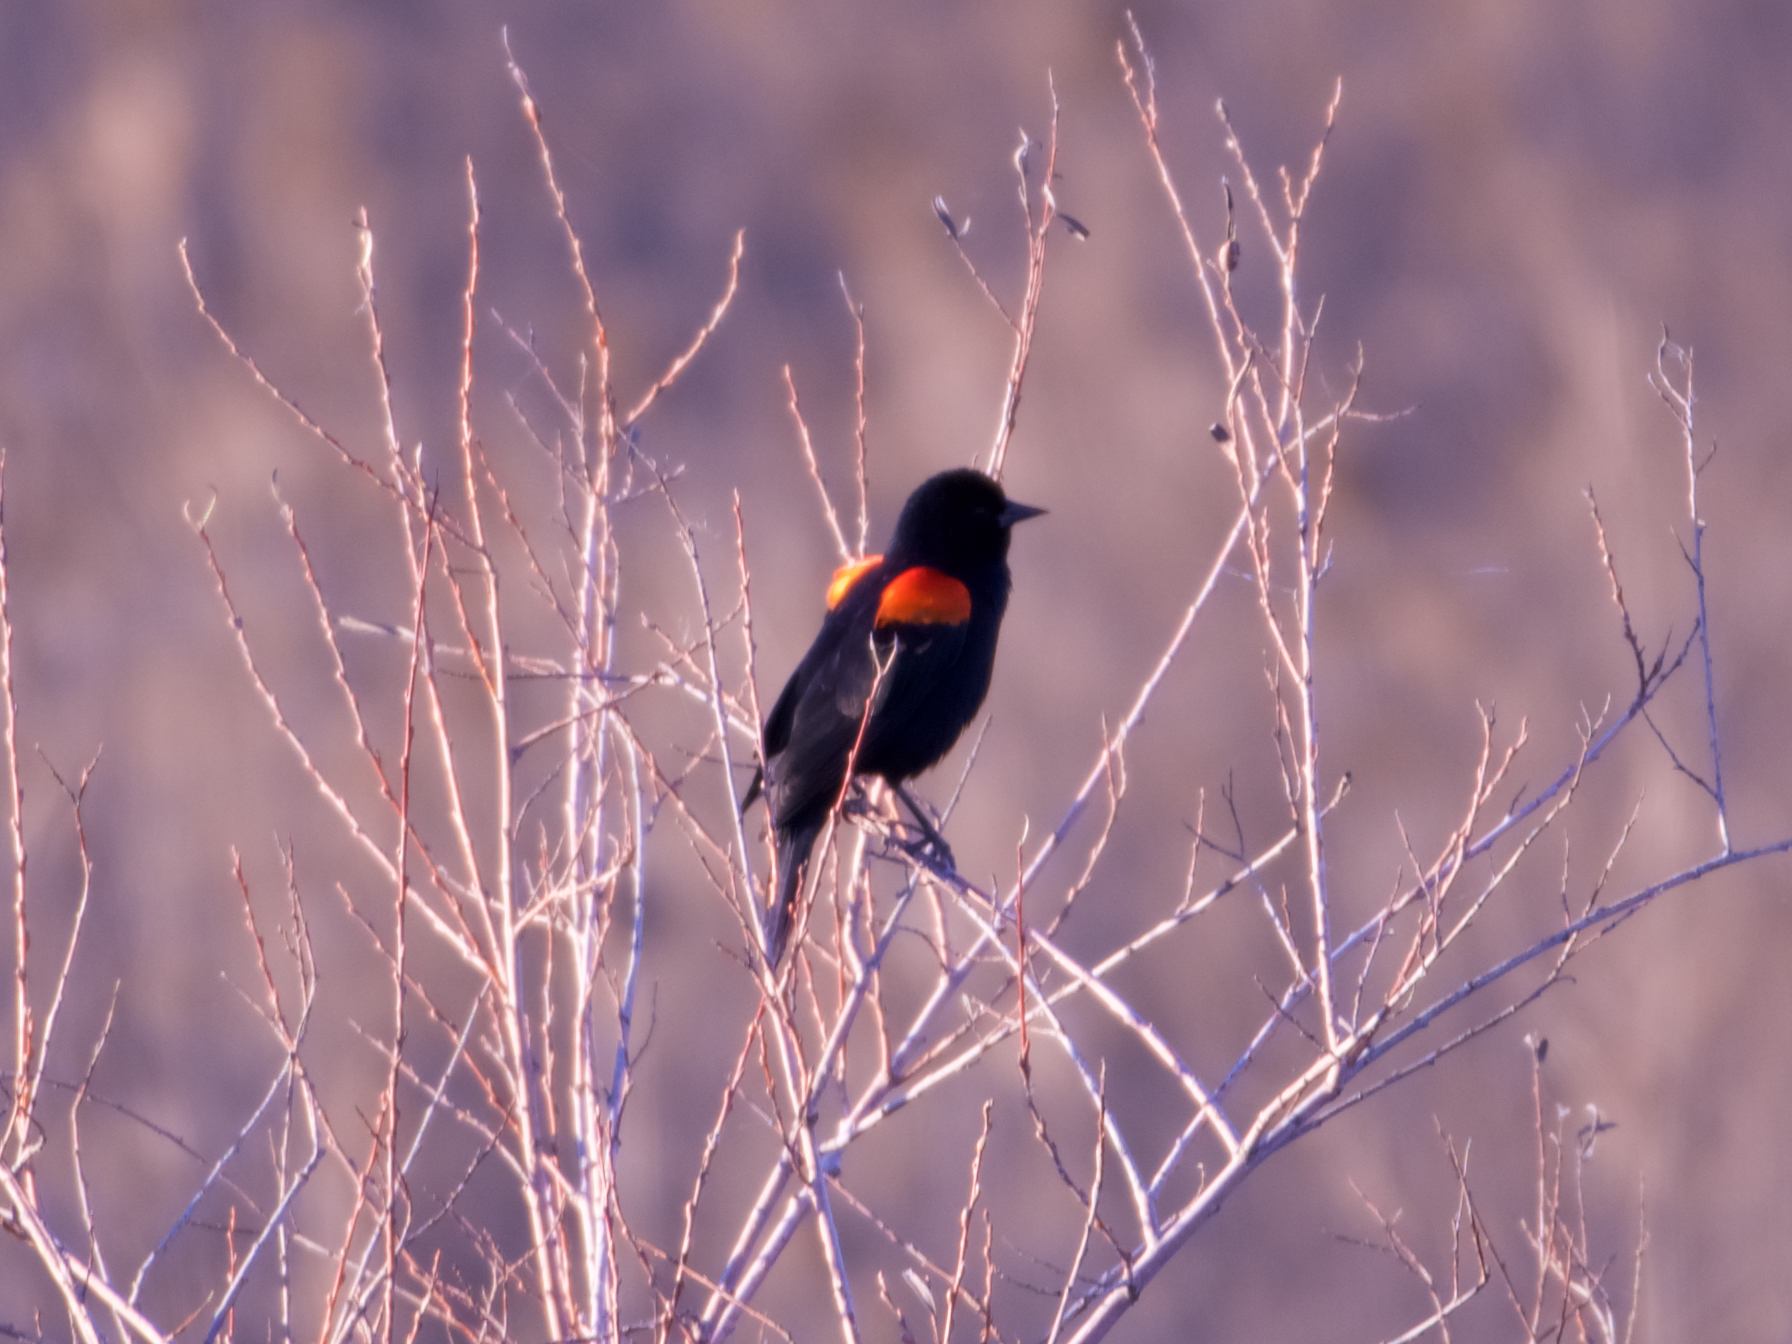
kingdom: Animalia
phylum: Chordata
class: Aves
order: Passeriformes
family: Icteridae
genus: Agelaius
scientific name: Agelaius phoeniceus
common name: Red-winged blackbird
